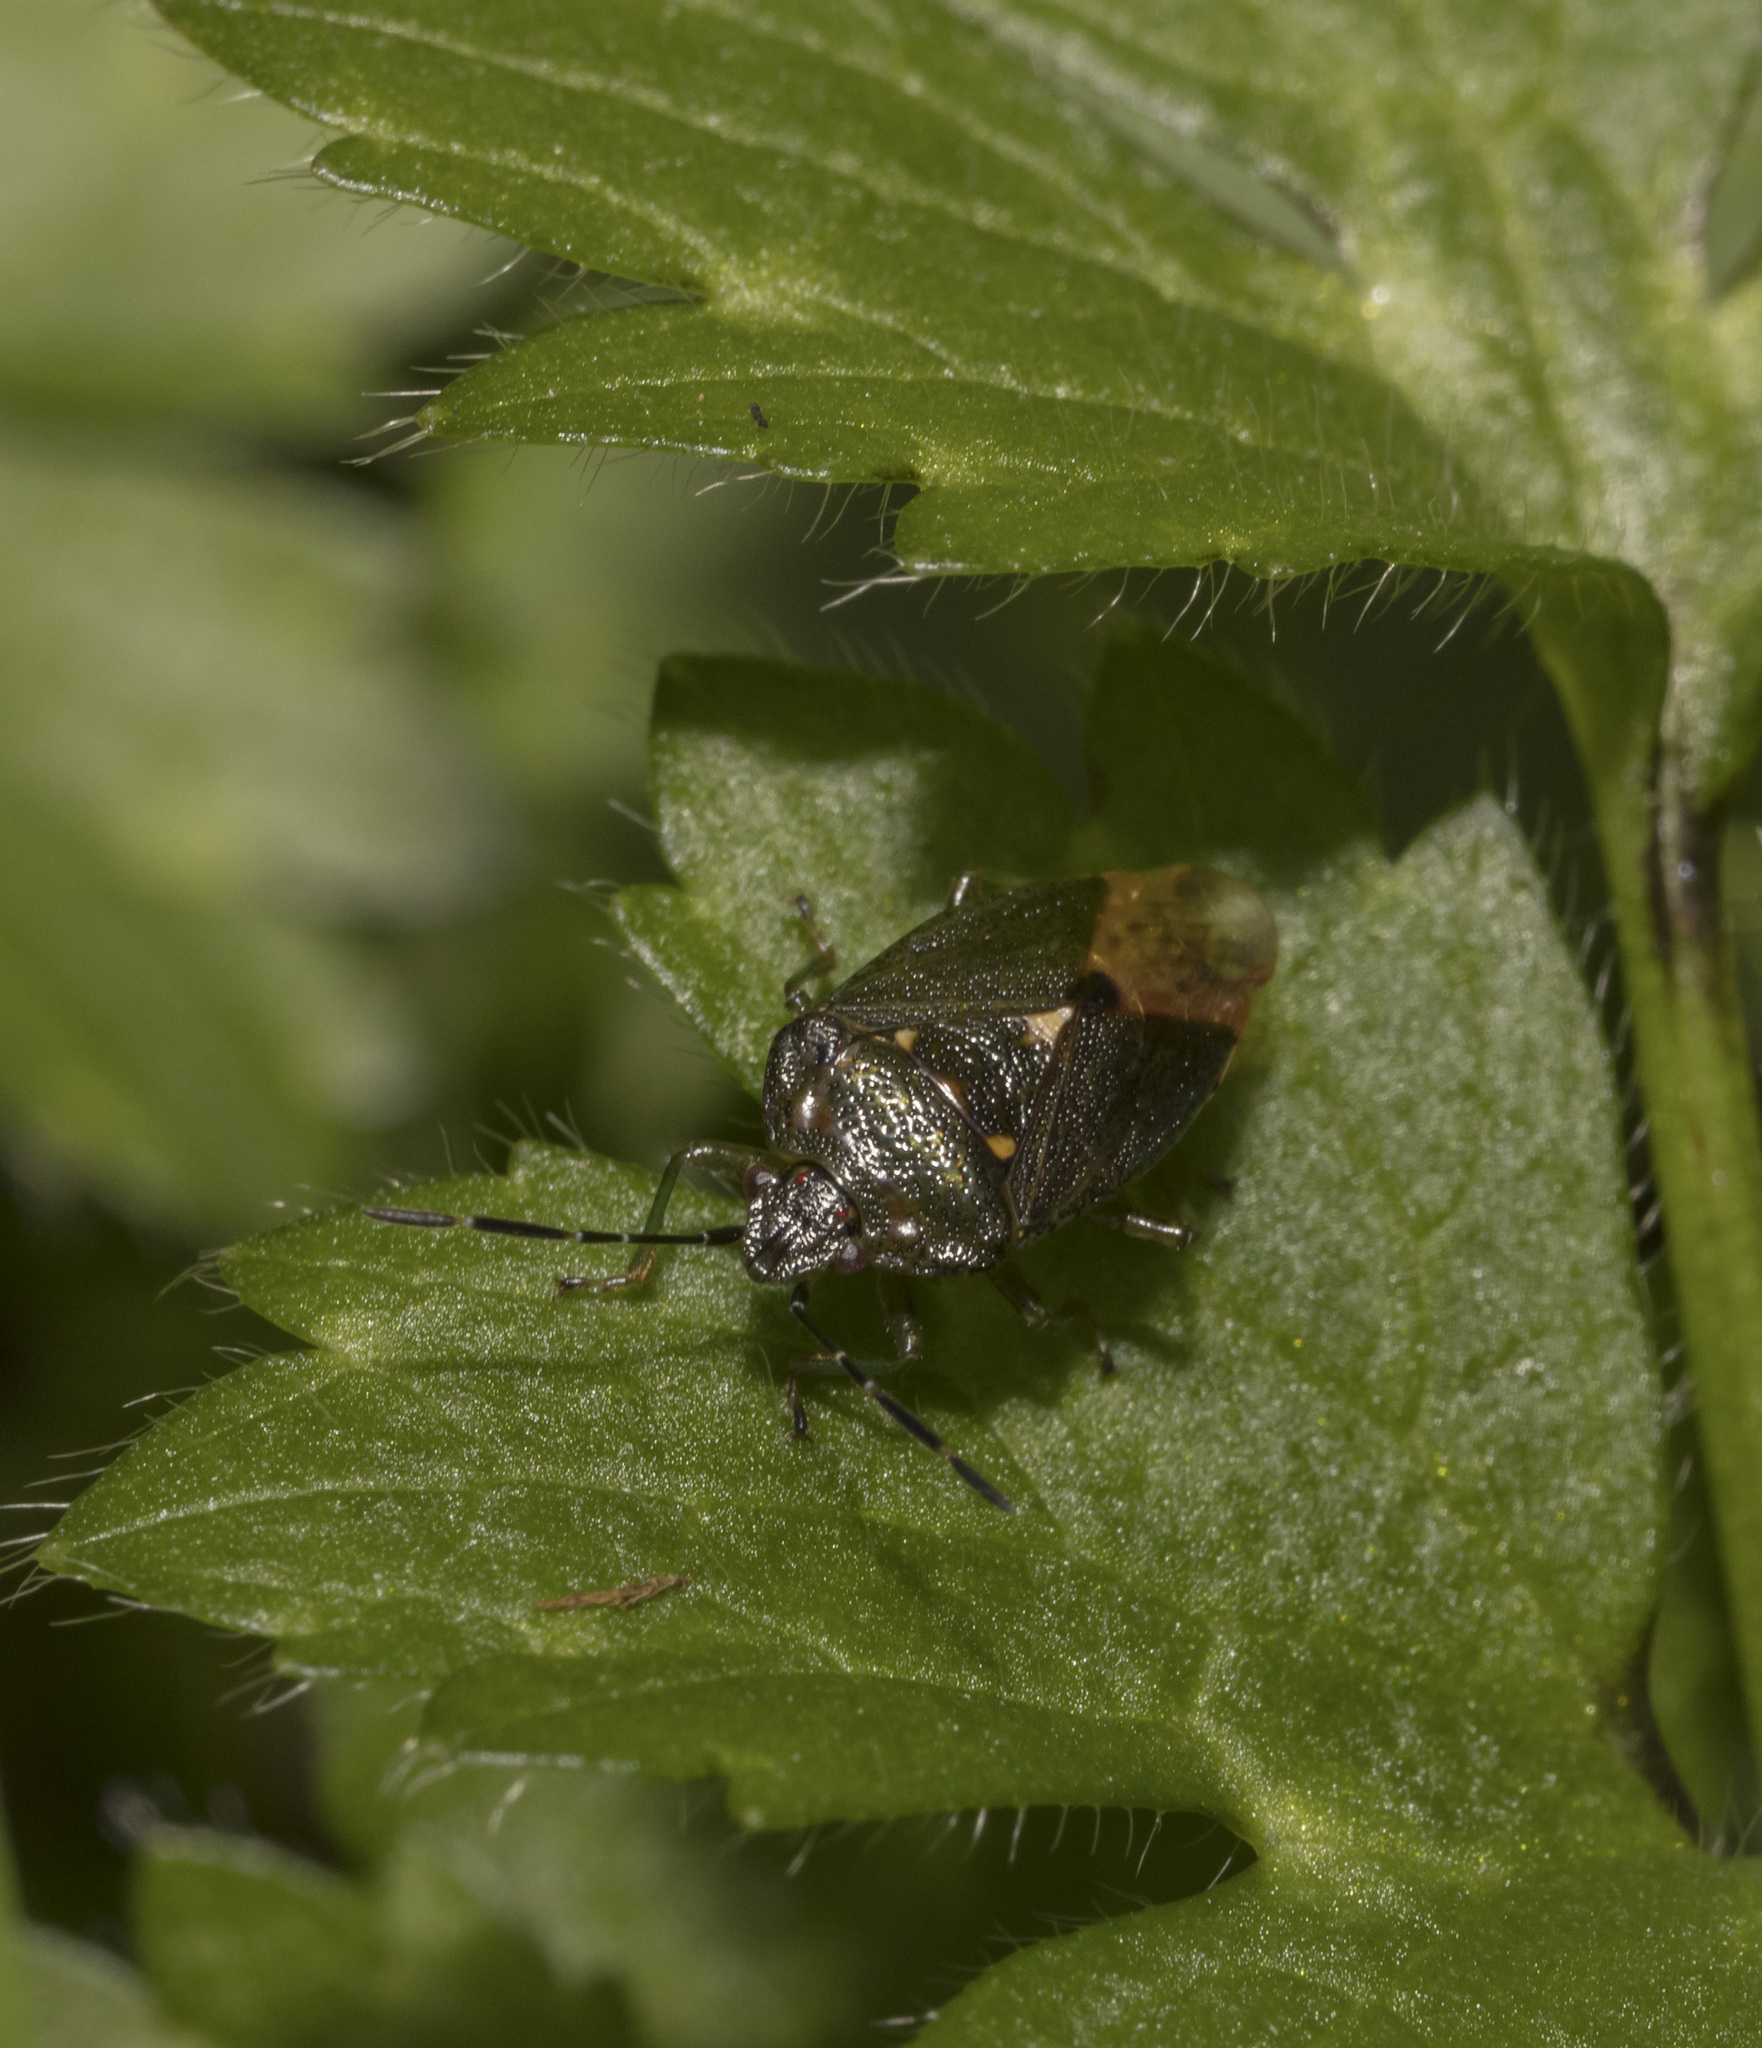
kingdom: Animalia
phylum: Arthropoda
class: Insecta
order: Hemiptera
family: Acanthosomatidae
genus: Ditomotarsus
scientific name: Ditomotarsus punctiventris
